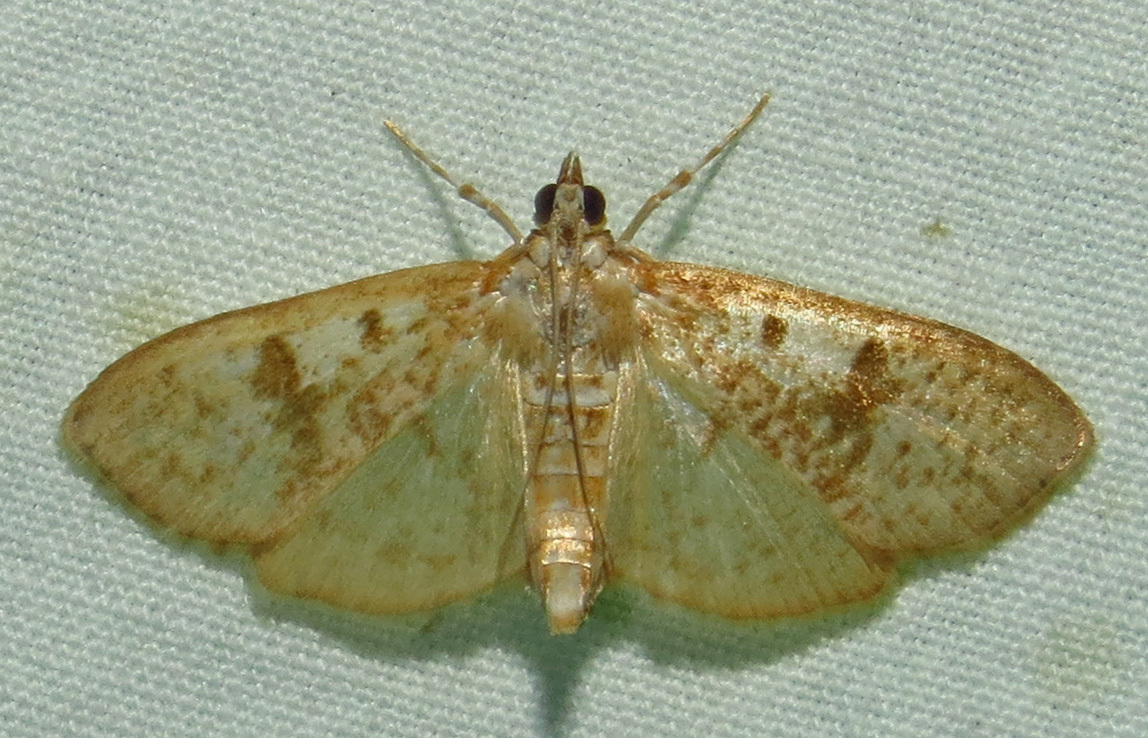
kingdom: Animalia
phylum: Arthropoda
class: Insecta
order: Lepidoptera
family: Crambidae
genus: Palpita
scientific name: Palpita freemanalis
